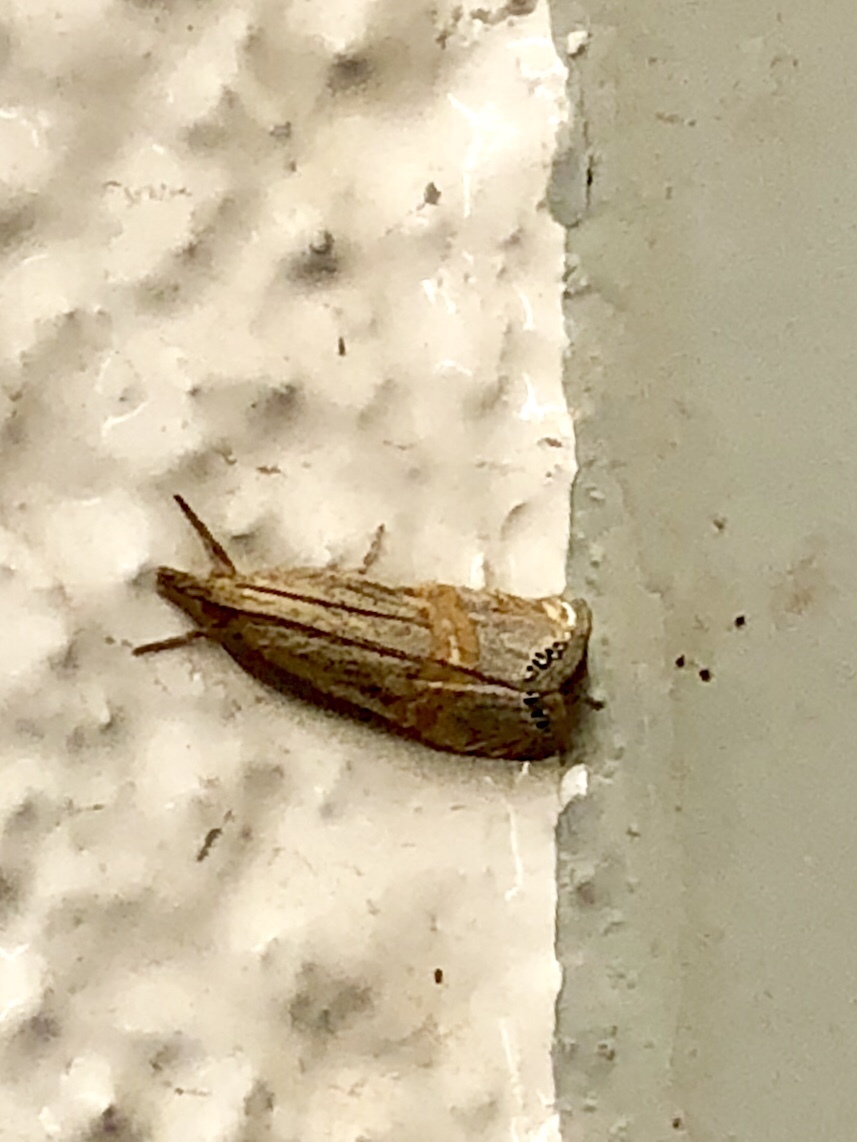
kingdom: Animalia
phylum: Arthropoda
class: Insecta
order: Lepidoptera
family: Crambidae
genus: Euchromius
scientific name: Euchromius ocellea
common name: Necklace veneer moth
